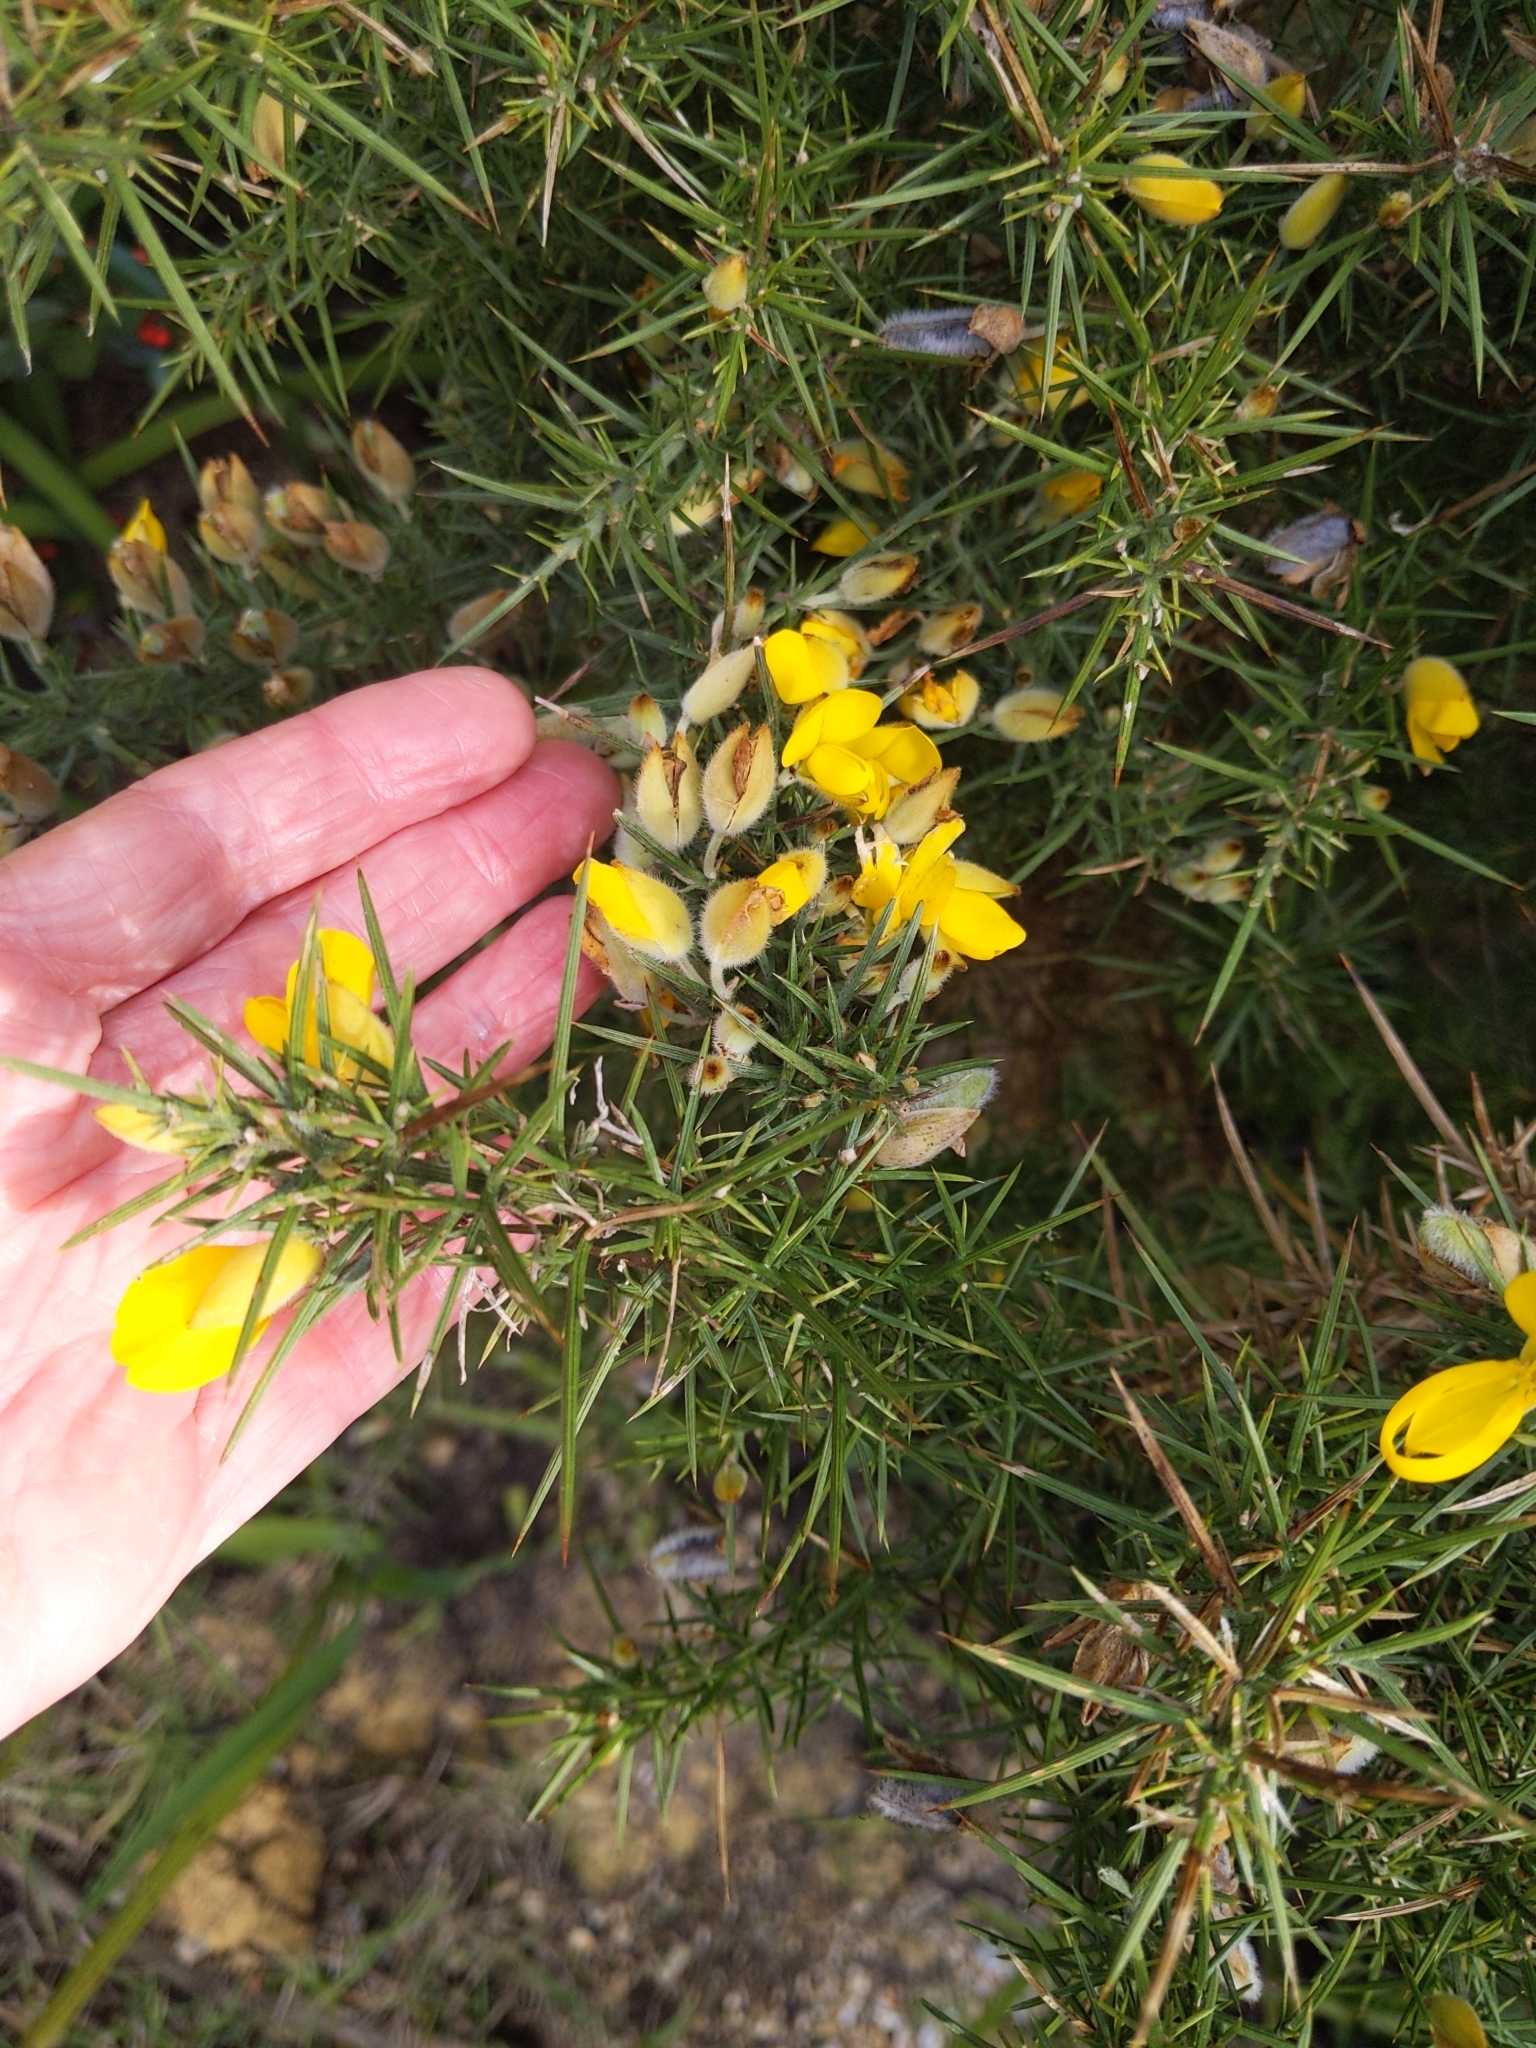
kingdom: Plantae
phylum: Tracheophyta
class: Magnoliopsida
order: Fabales
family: Fabaceae
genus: Ulex
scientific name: Ulex europaeus
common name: Common gorse
